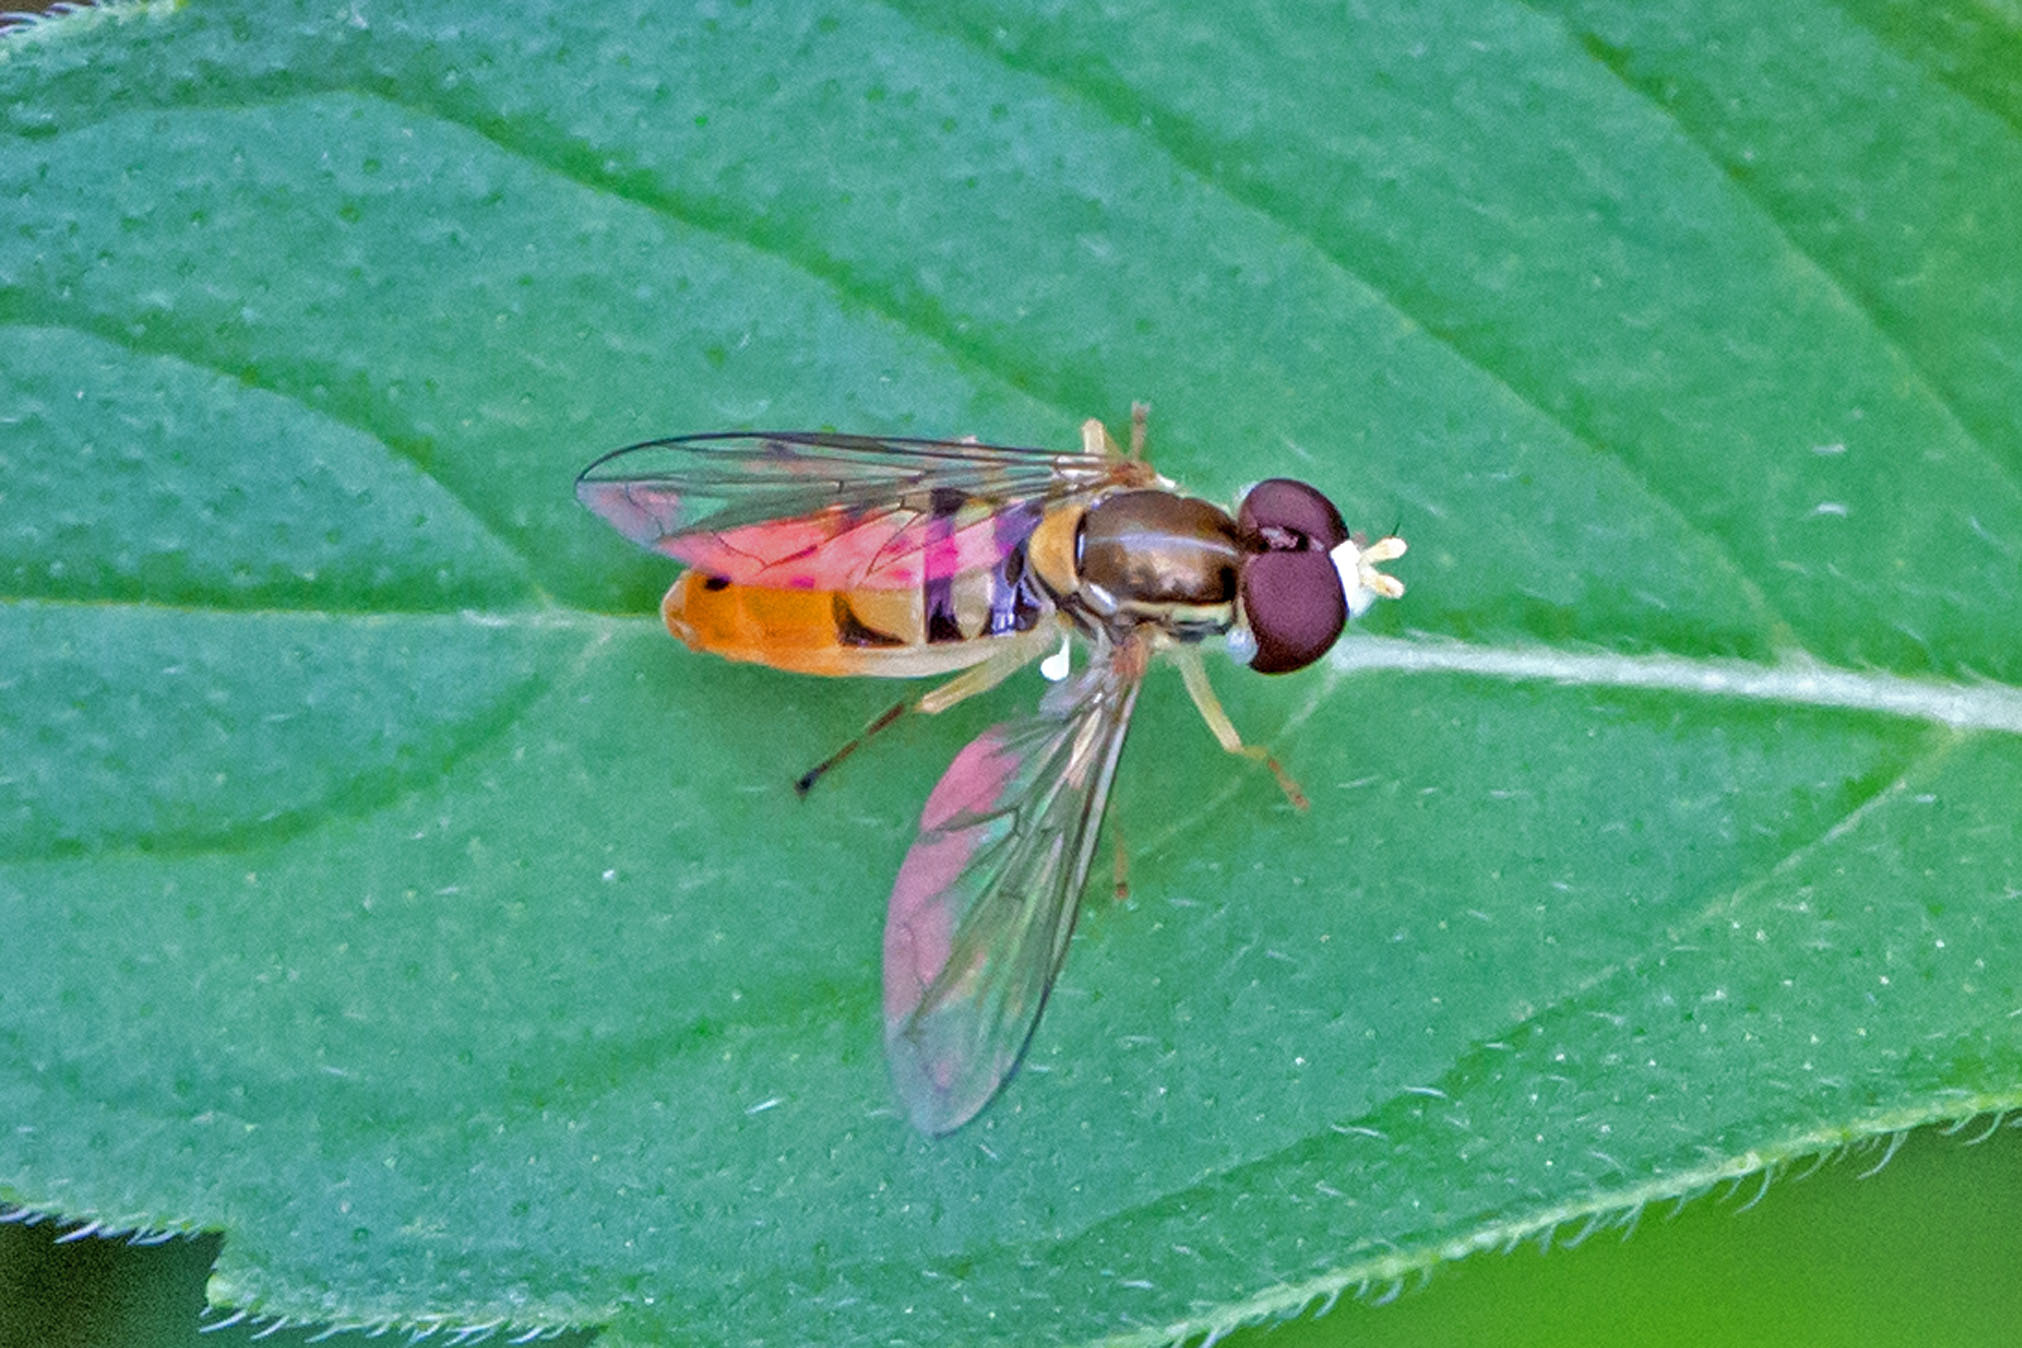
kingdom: Animalia
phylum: Arthropoda
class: Insecta
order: Diptera
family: Syrphidae
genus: Toxomerus
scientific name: Toxomerus marginatus
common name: Syrphid fly
